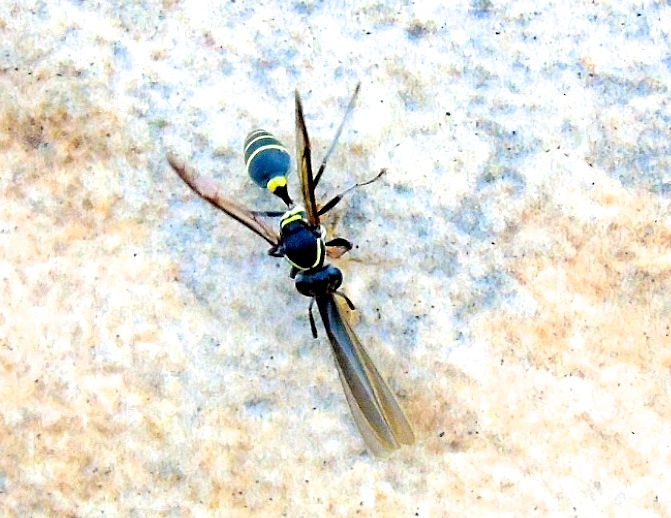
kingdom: Animalia
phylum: Arthropoda
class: Insecta
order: Hymenoptera
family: Vespidae
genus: Myrapetra
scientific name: Myrapetra
